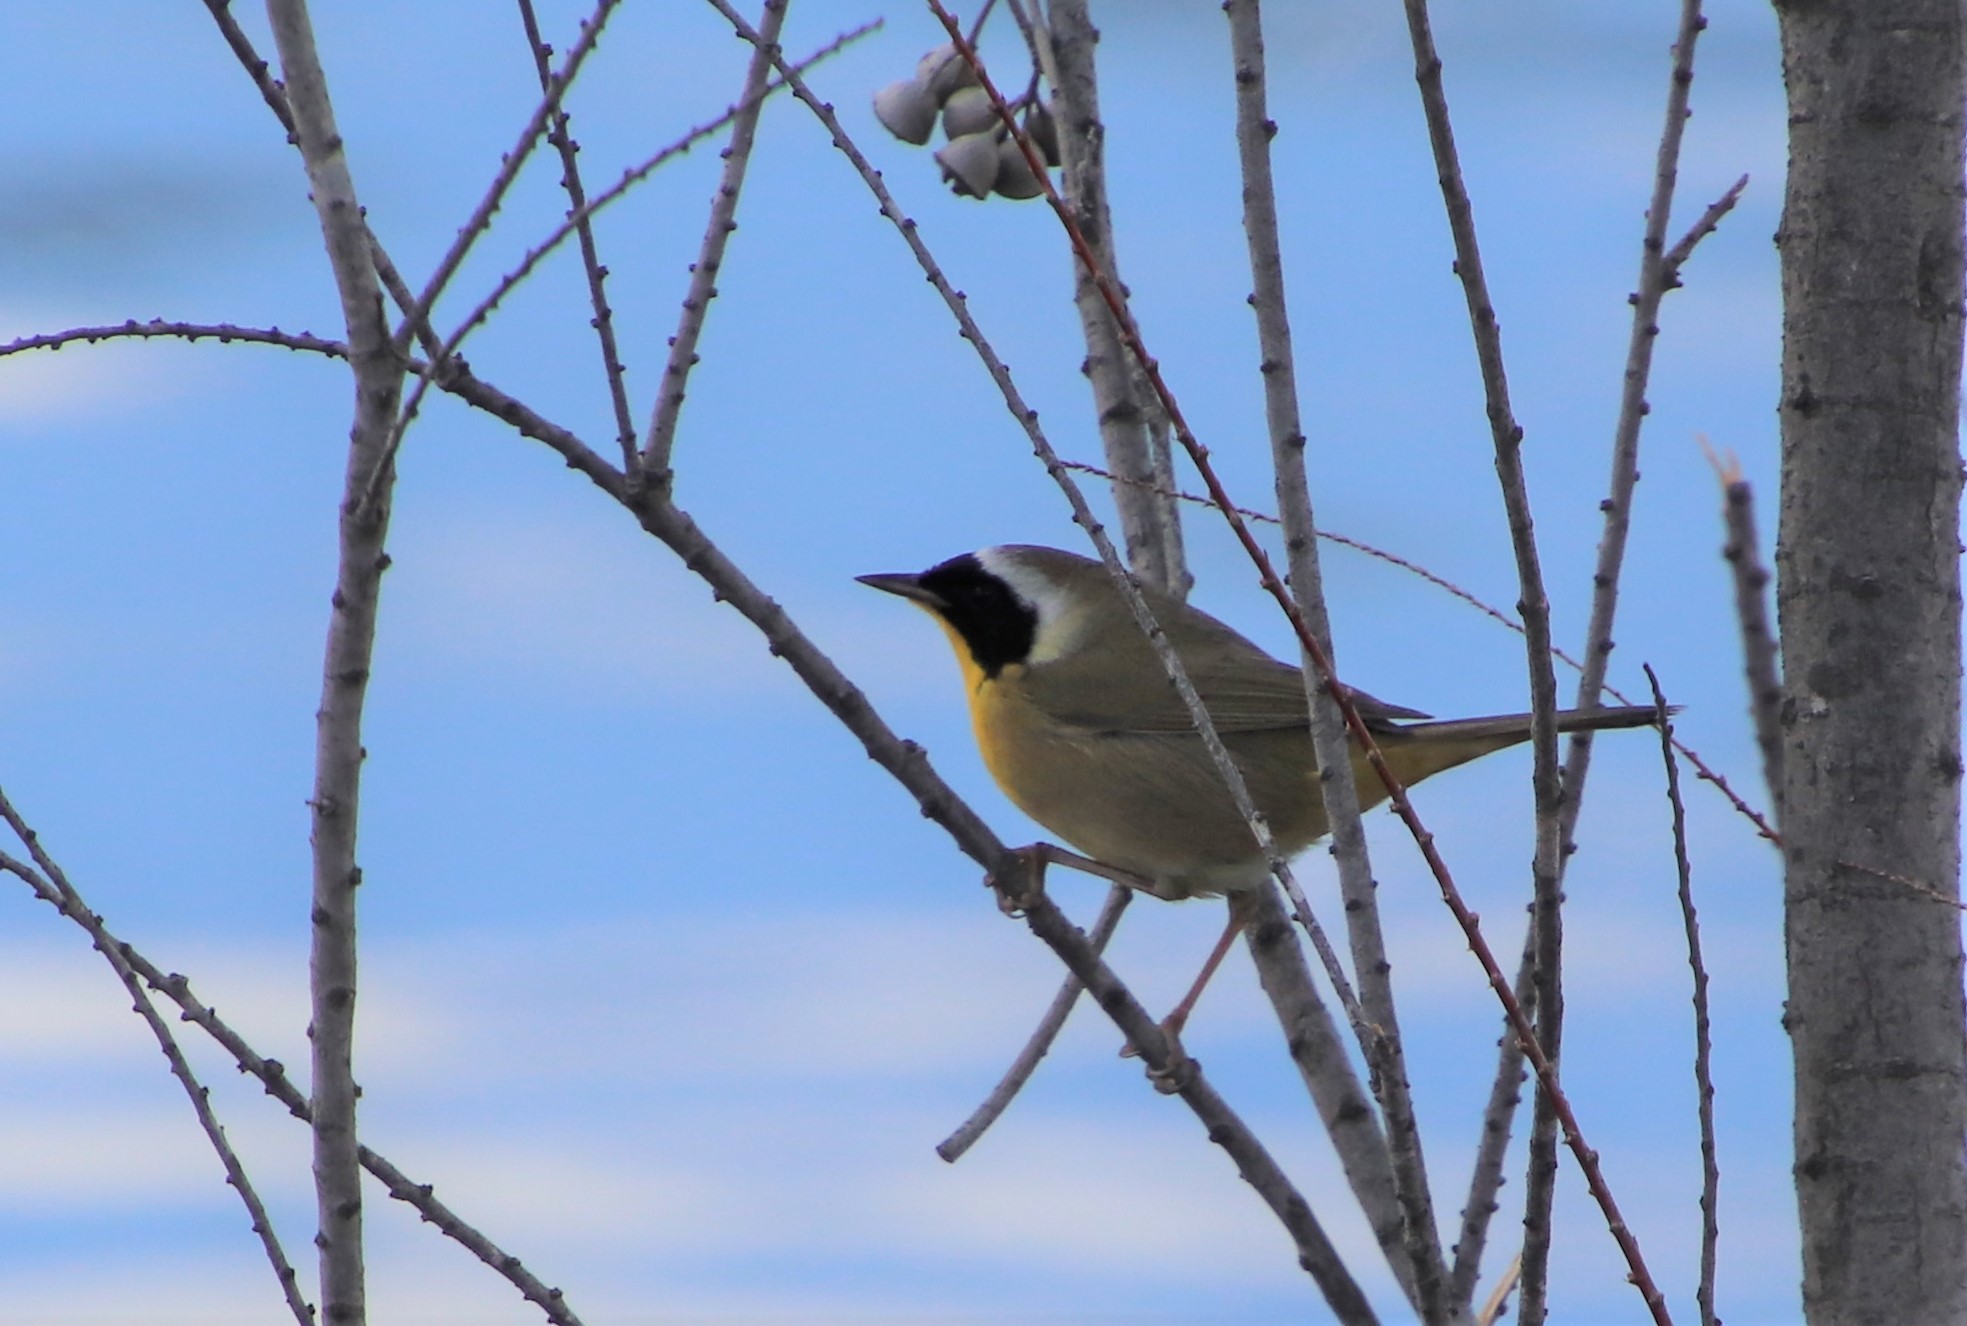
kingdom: Animalia
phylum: Chordata
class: Aves
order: Passeriformes
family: Parulidae
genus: Geothlypis
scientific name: Geothlypis trichas
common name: Common yellowthroat
